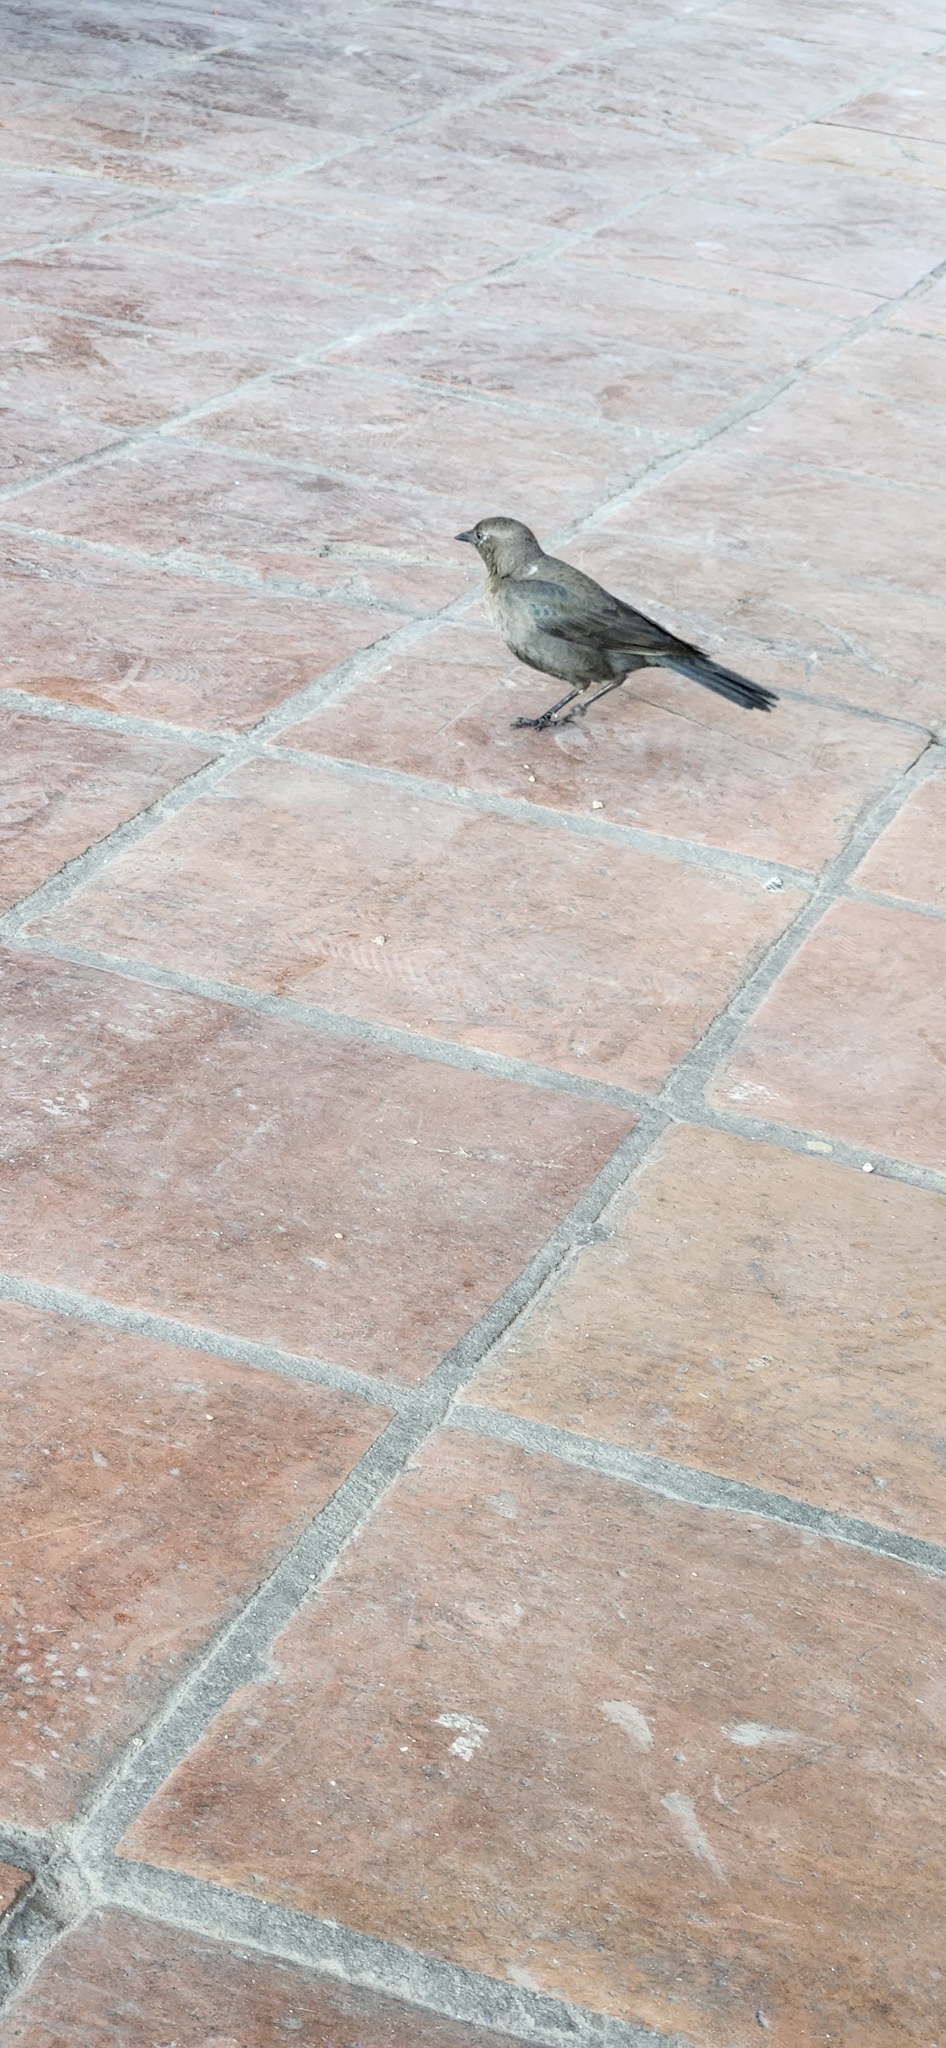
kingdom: Animalia
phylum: Chordata
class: Aves
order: Passeriformes
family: Icteridae
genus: Euphagus
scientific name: Euphagus cyanocephalus
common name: Brewer's blackbird
